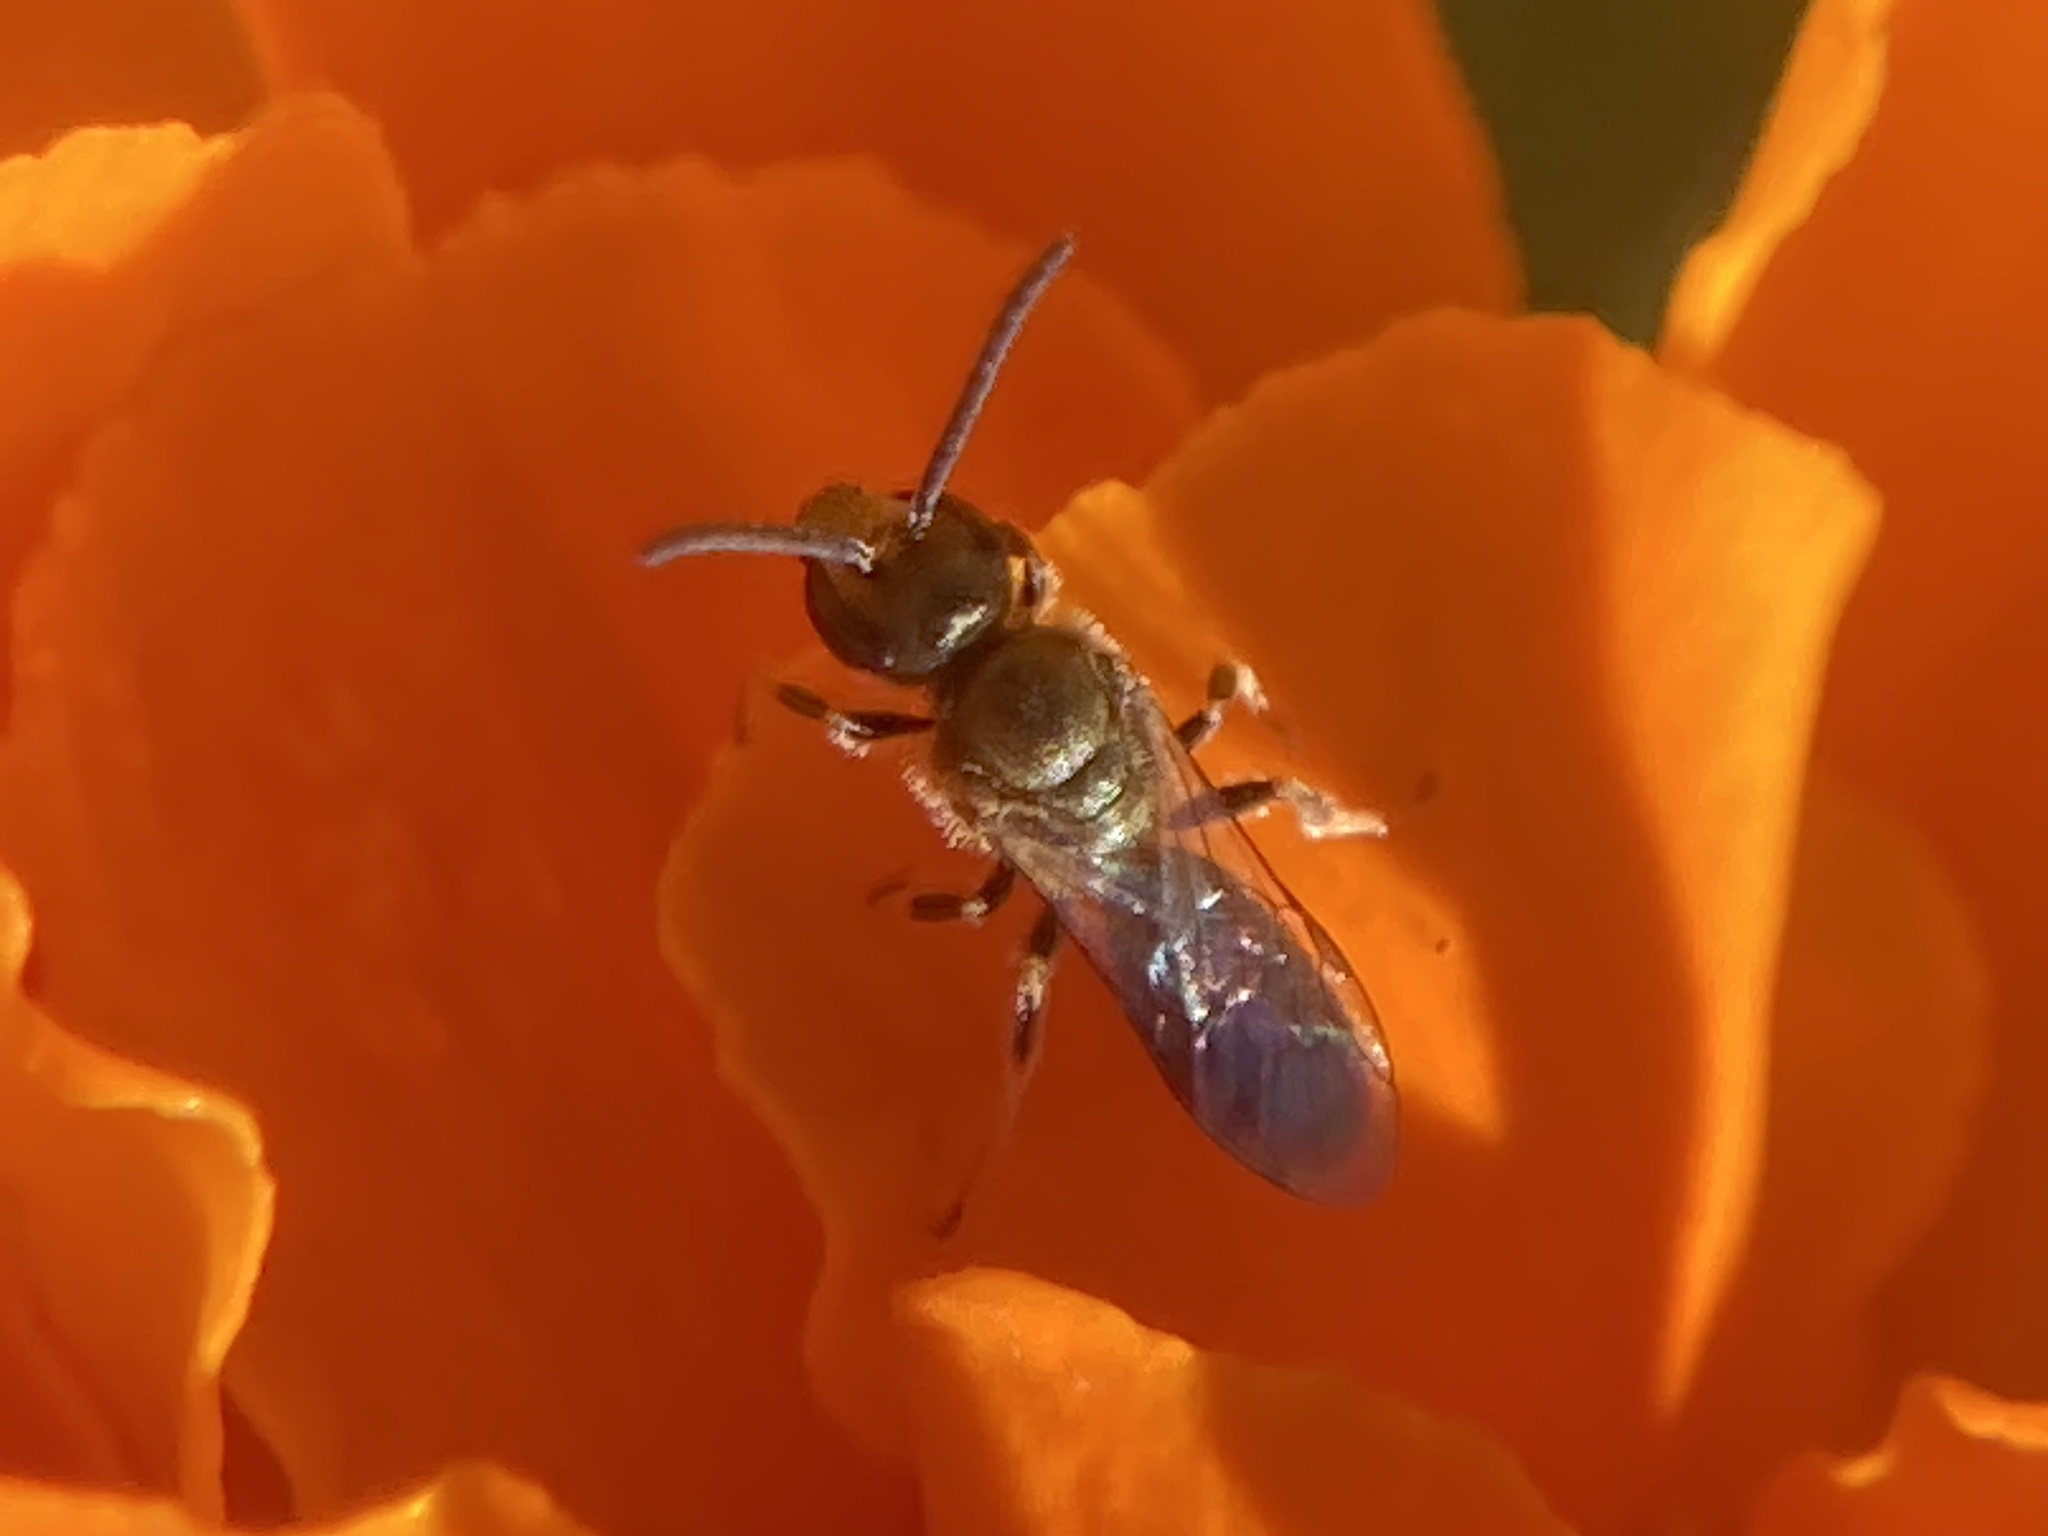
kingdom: Animalia
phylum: Arthropoda
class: Insecta
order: Hymenoptera
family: Halictidae
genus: Dialictus
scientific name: Dialictus
